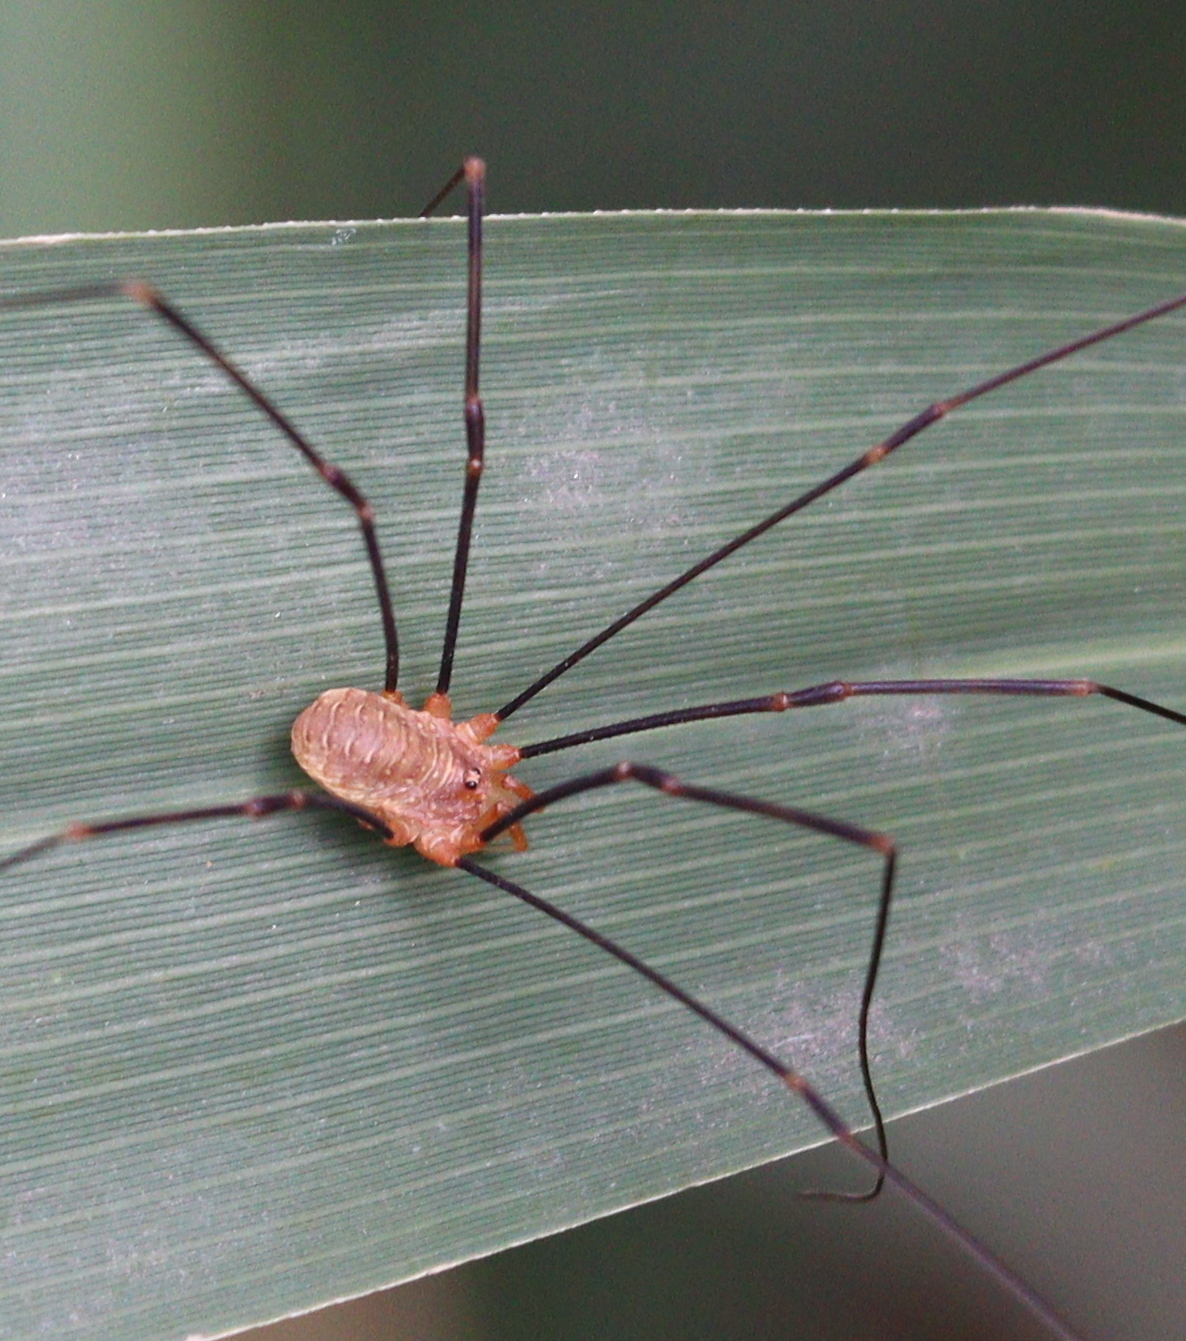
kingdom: Animalia
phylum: Arthropoda
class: Arachnida
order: Opiliones
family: Phalangiidae
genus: Opilio
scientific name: Opilio canestrinii
